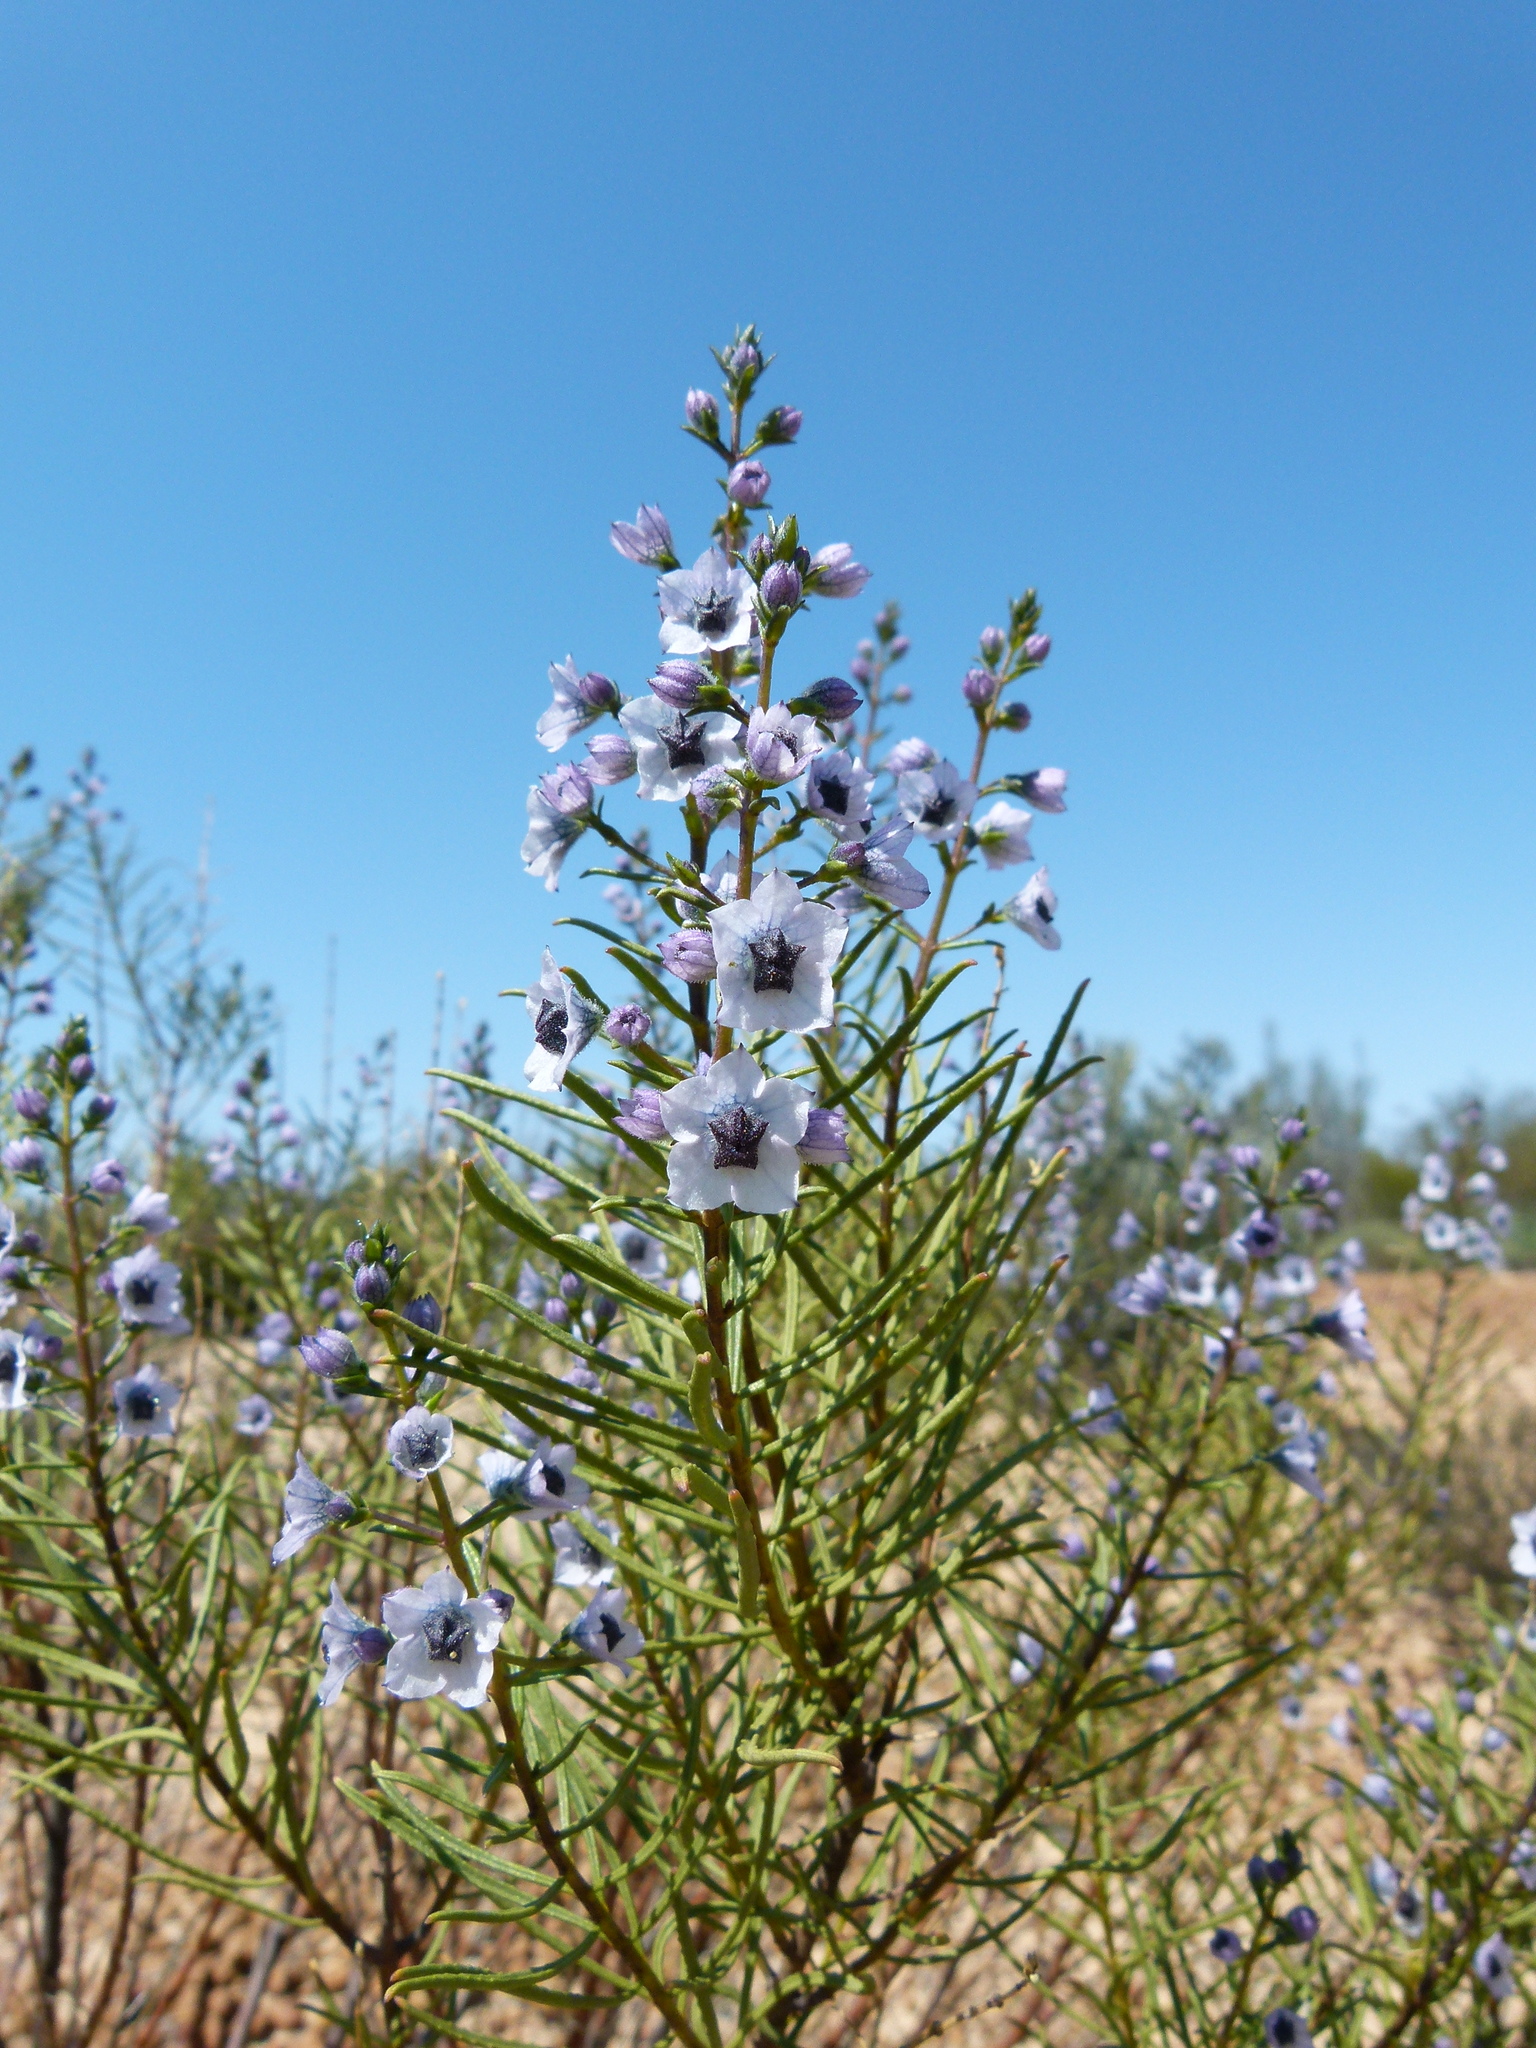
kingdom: Plantae
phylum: Tracheophyta
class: Magnoliopsida
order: Lamiales
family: Lamiaceae
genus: Cyanostegia
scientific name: Cyanostegia angustifolia
